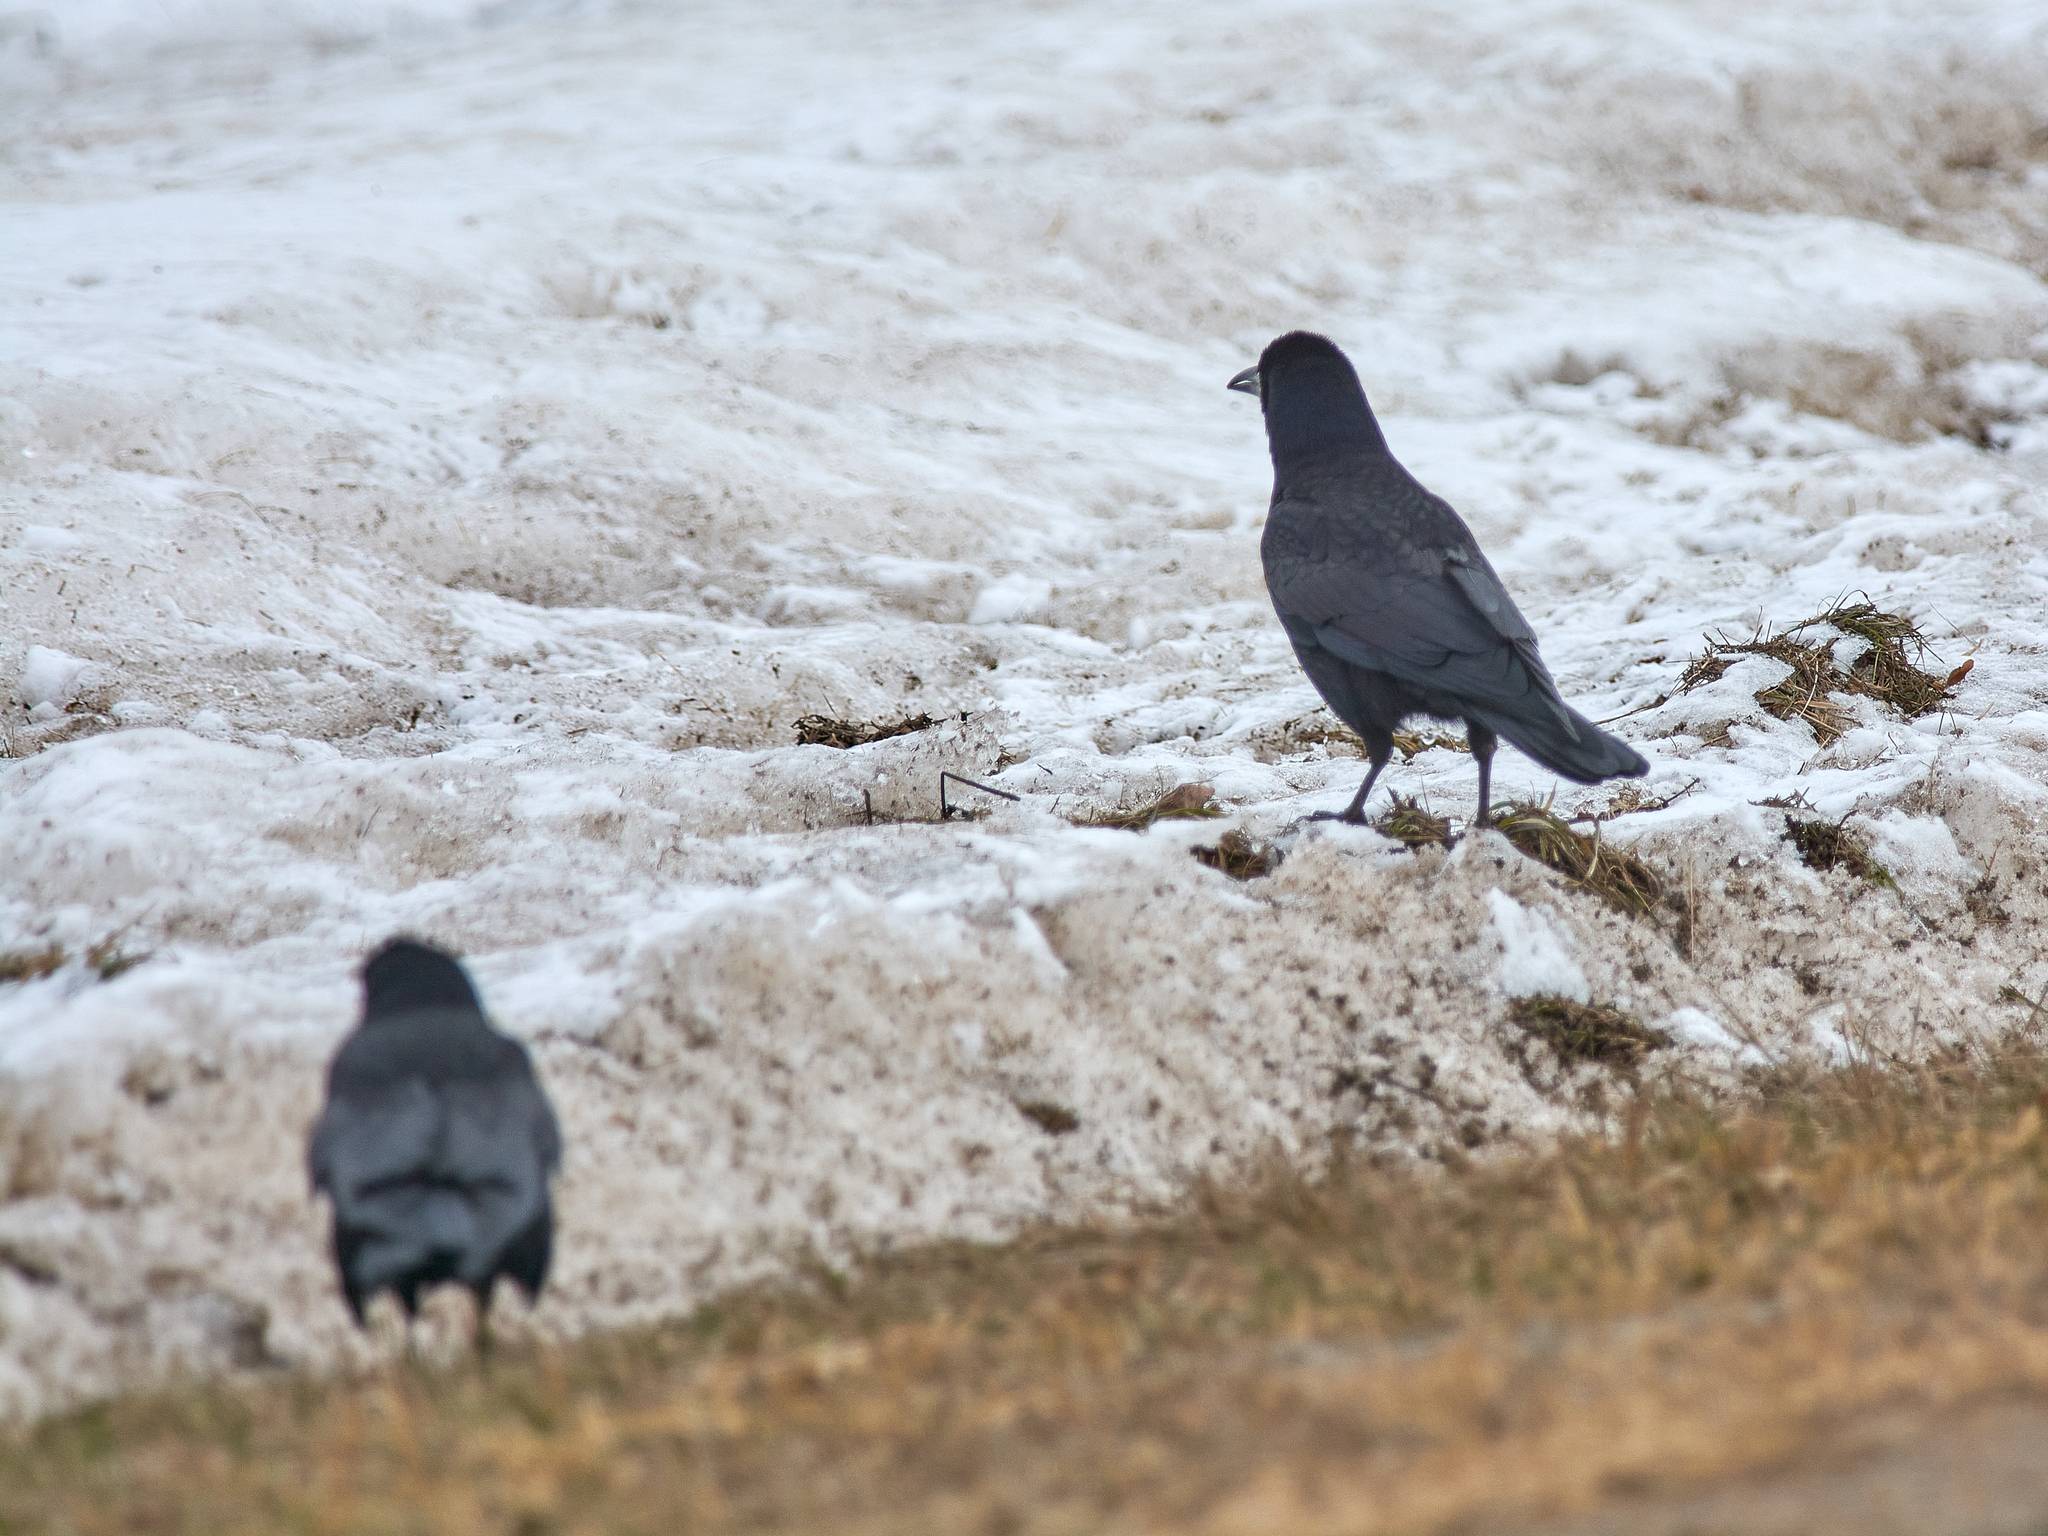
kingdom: Animalia
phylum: Chordata
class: Aves
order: Passeriformes
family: Corvidae
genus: Corvus
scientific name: Corvus frugilegus
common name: Rook
